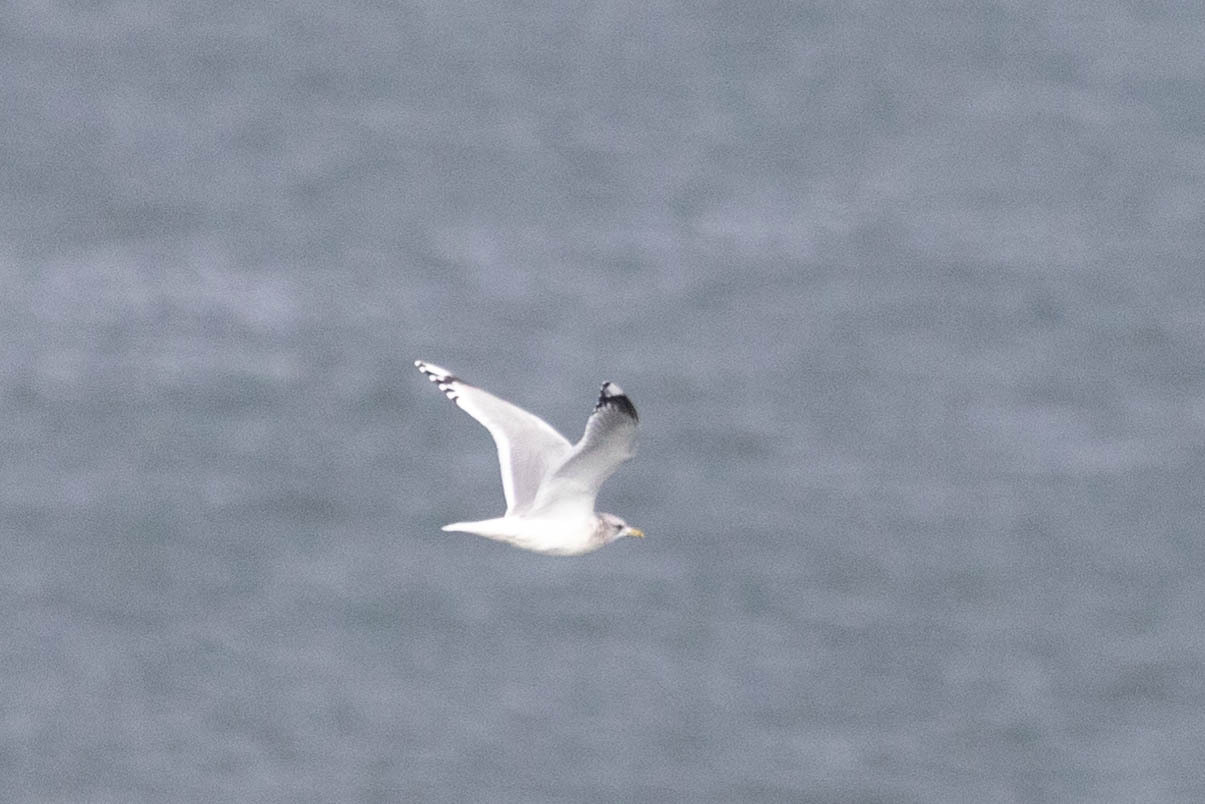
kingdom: Animalia
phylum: Chordata
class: Aves
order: Charadriiformes
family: Laridae
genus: Larus
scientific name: Larus brachyrhynchus
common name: Short-billed gull
